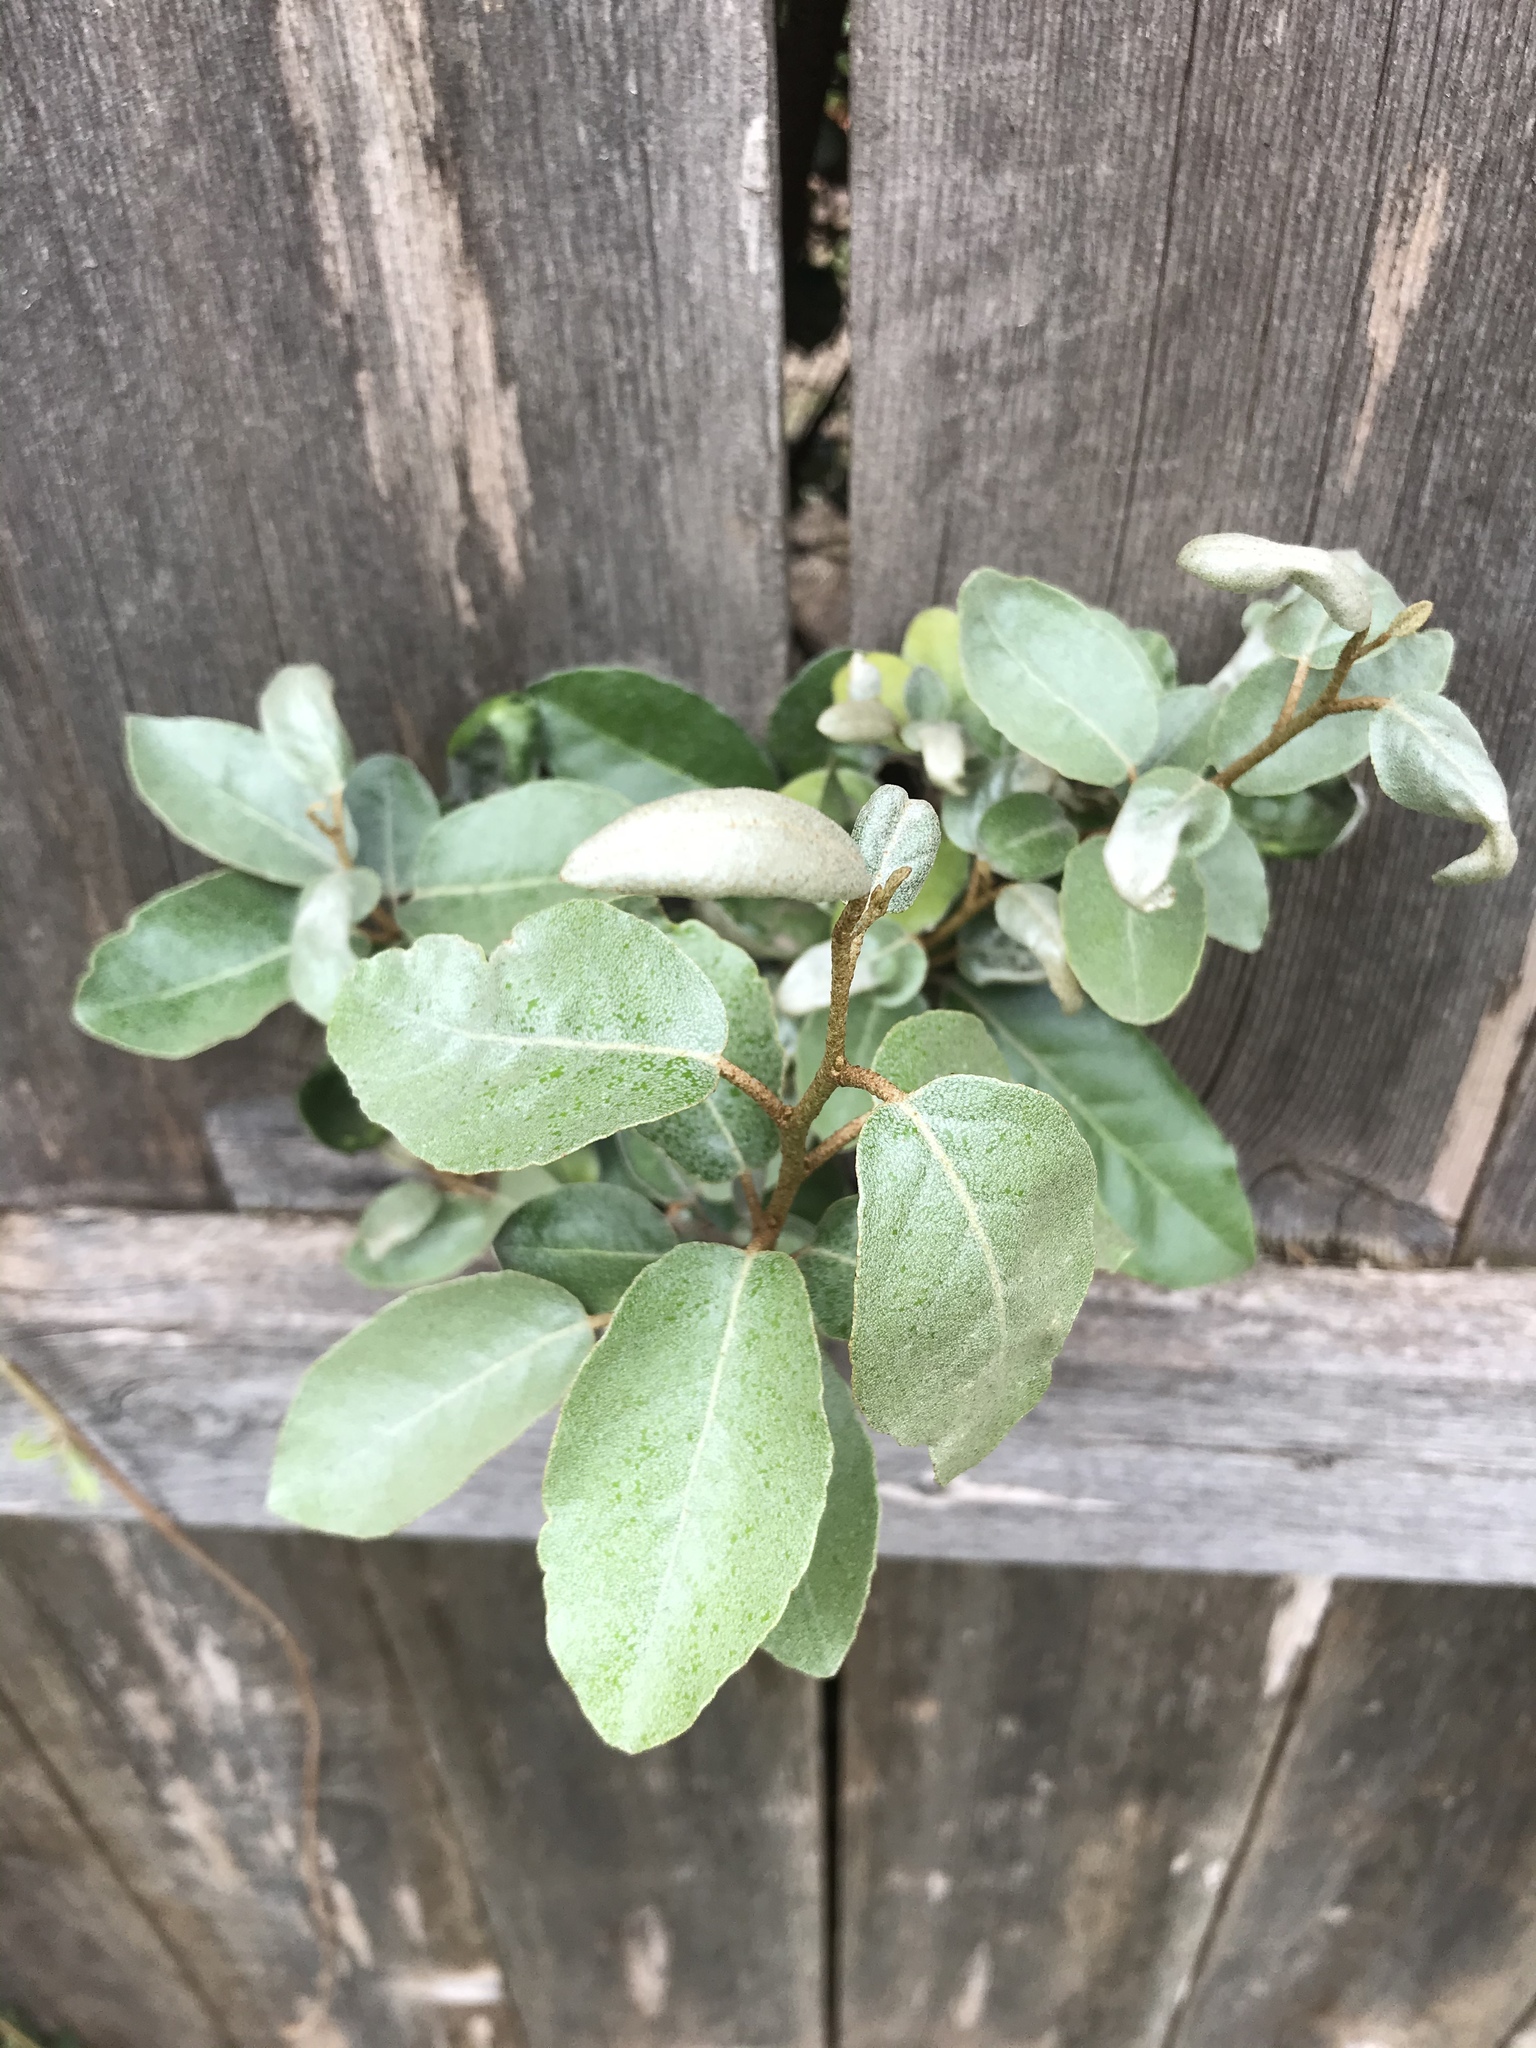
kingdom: Plantae
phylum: Tracheophyta
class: Magnoliopsida
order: Rosales
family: Elaeagnaceae
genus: Elaeagnus
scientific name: Elaeagnus pungens
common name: Spiny oleaster
